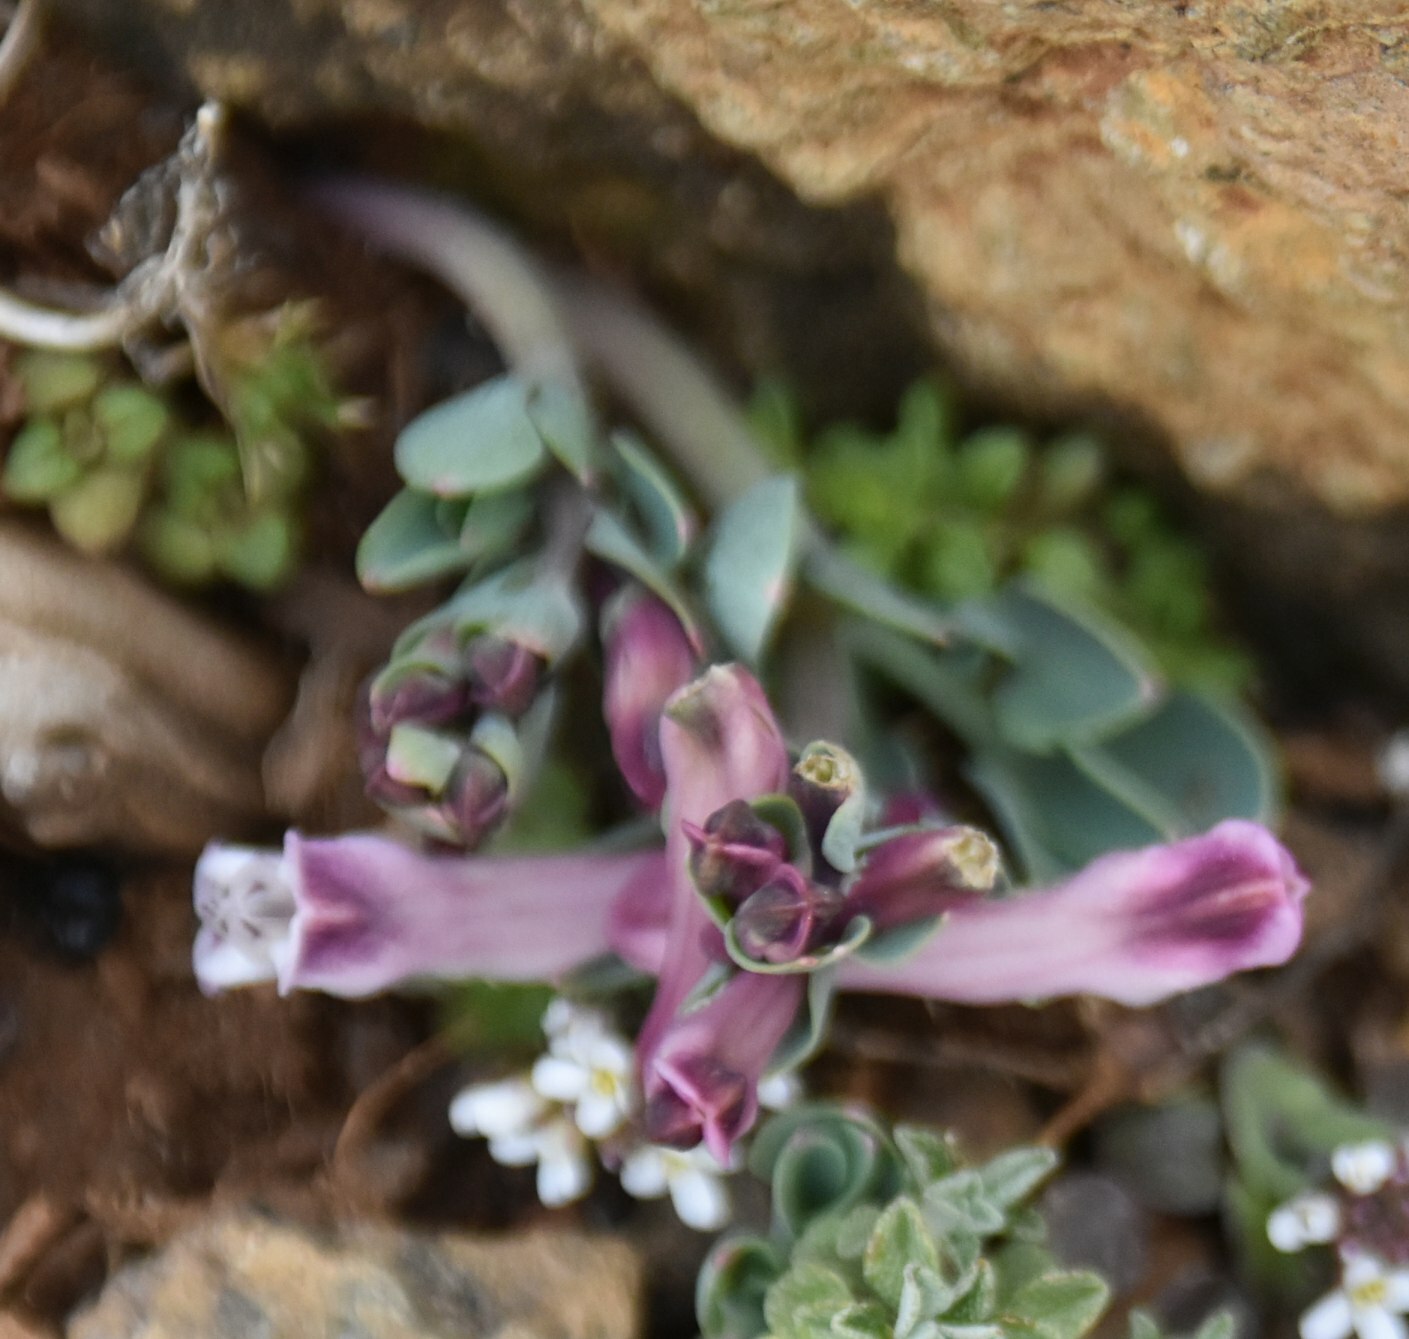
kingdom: Plantae
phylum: Tracheophyta
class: Magnoliopsida
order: Ranunculales
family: Papaveraceae
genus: Corydalis
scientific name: Corydalis rutifolia
